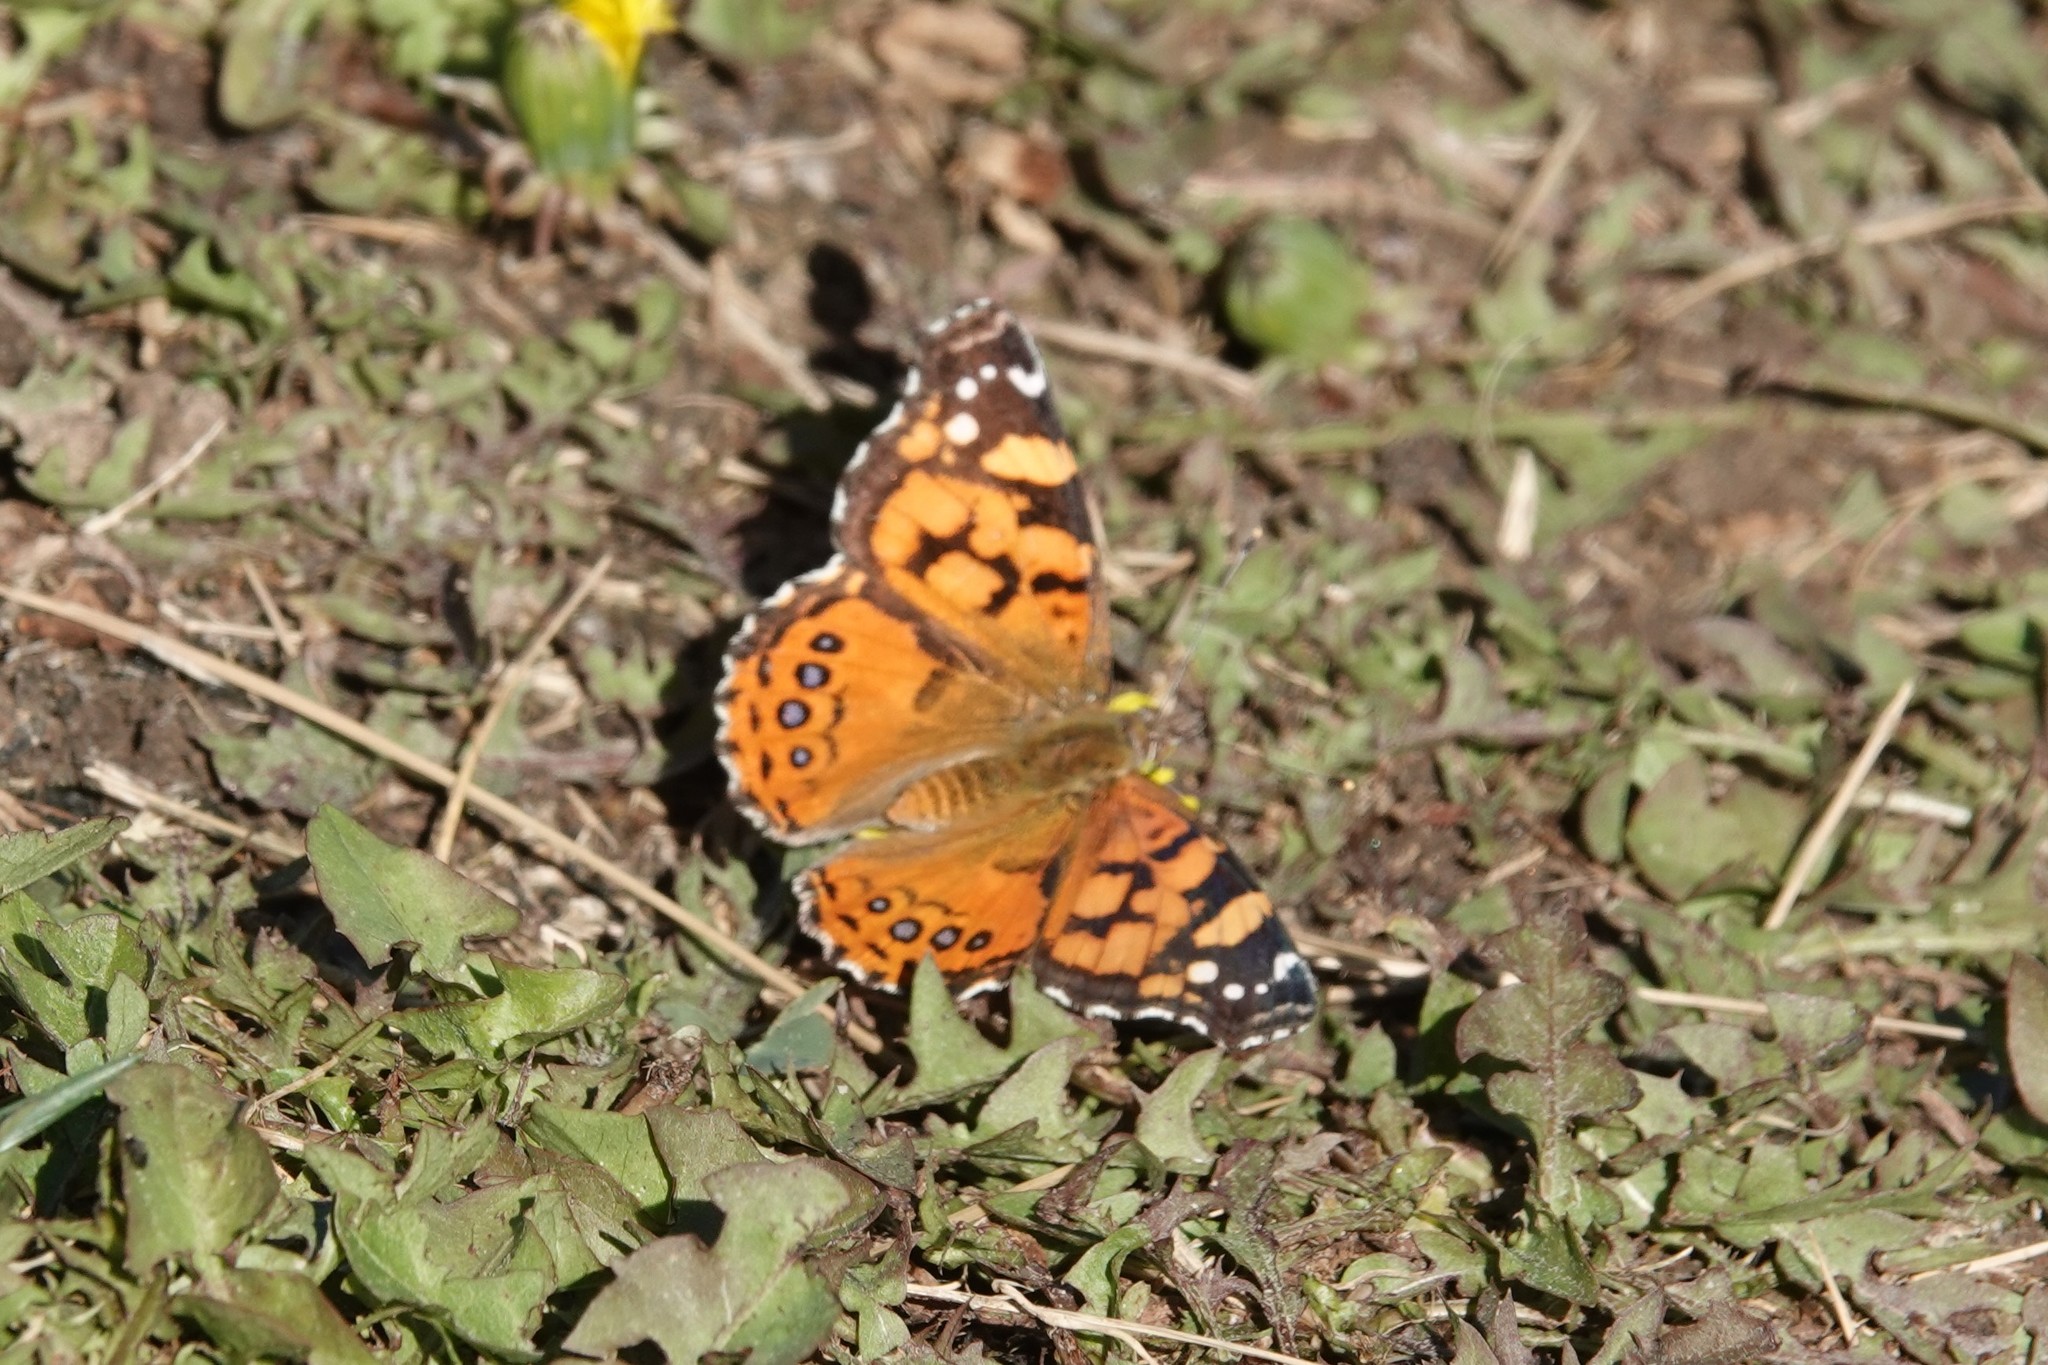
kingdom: Animalia
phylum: Arthropoda
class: Insecta
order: Lepidoptera
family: Nymphalidae
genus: Vanessa
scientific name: Vanessa annabella
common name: West coast lady
